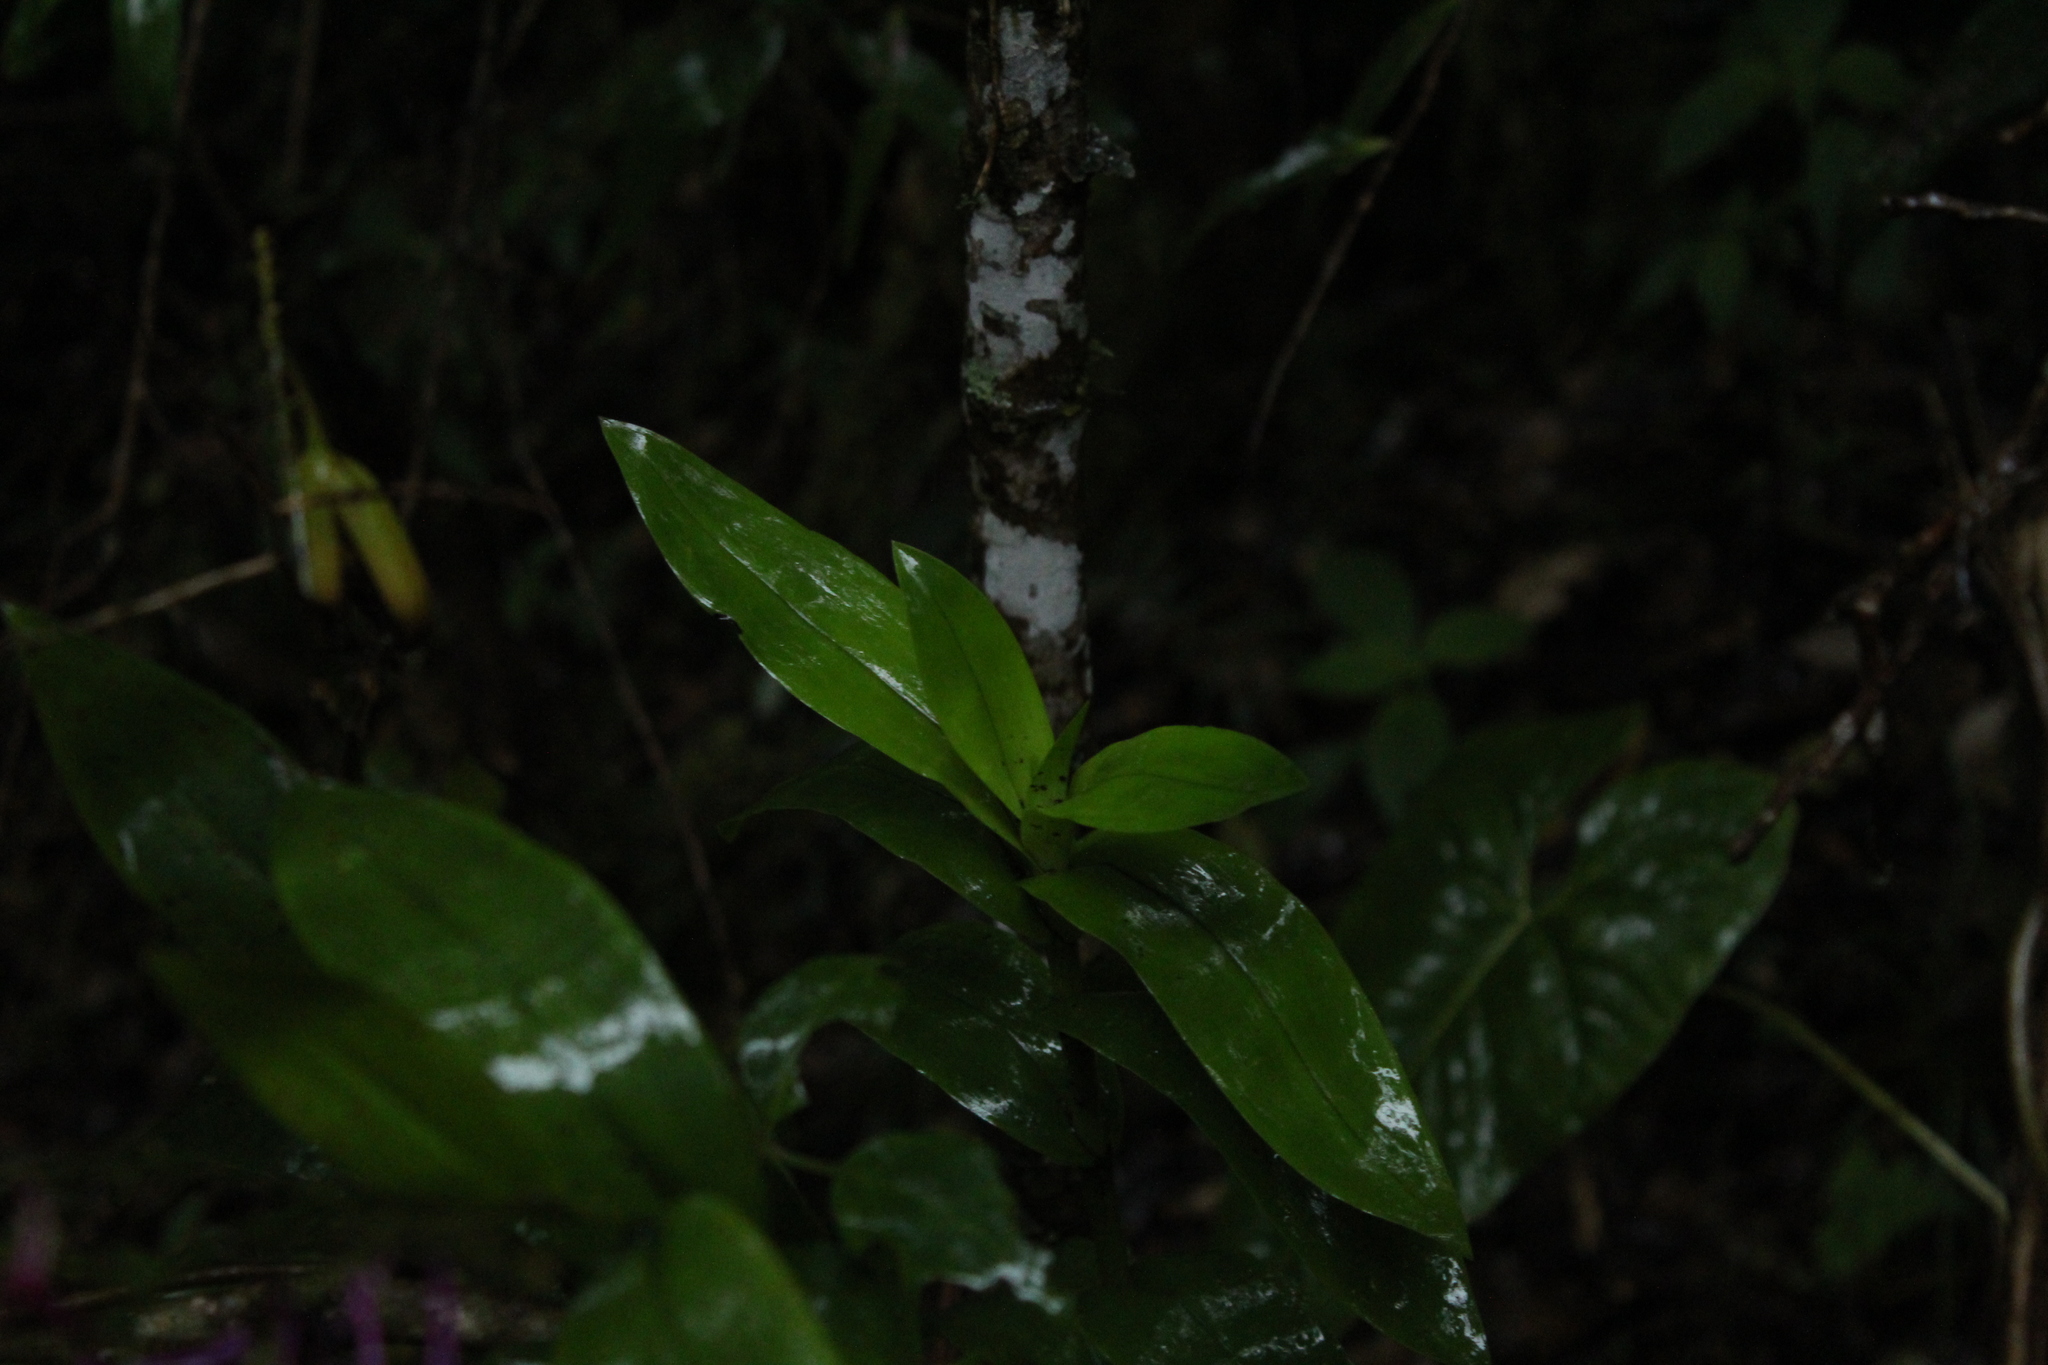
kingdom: Plantae
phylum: Tracheophyta
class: Liliopsida
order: Asparagales
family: Orchidaceae
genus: Epidendrum
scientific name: Epidendrum arnoldii
